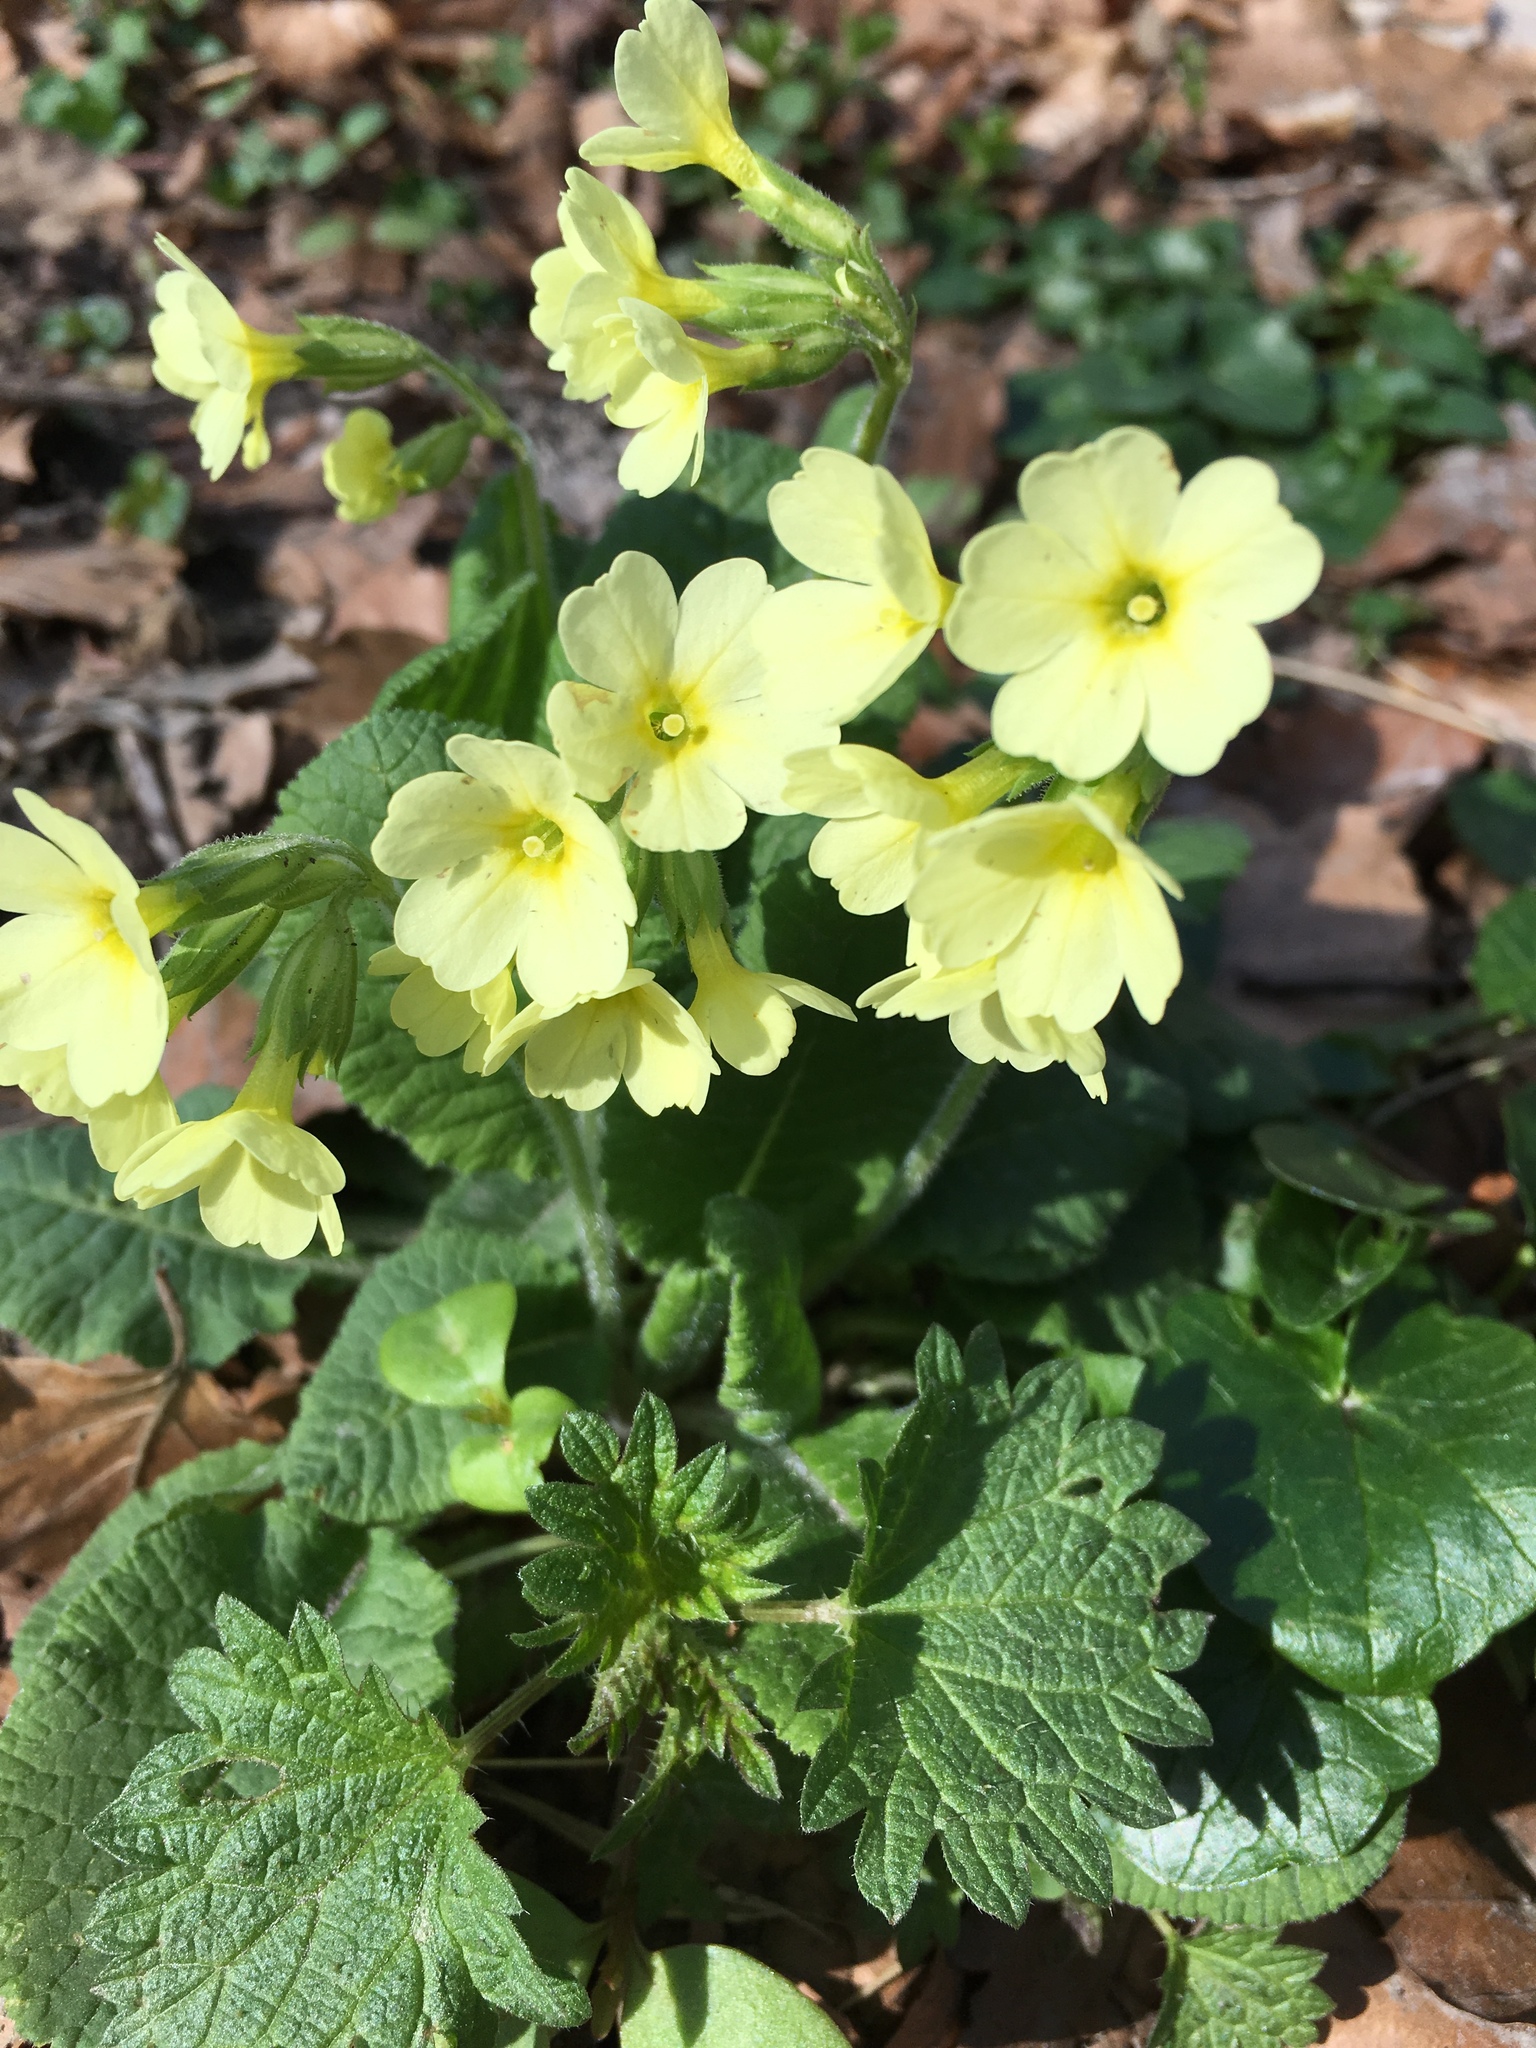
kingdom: Plantae
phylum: Tracheophyta
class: Magnoliopsida
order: Ericales
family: Primulaceae
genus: Primula
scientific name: Primula elatior
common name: Oxlip
